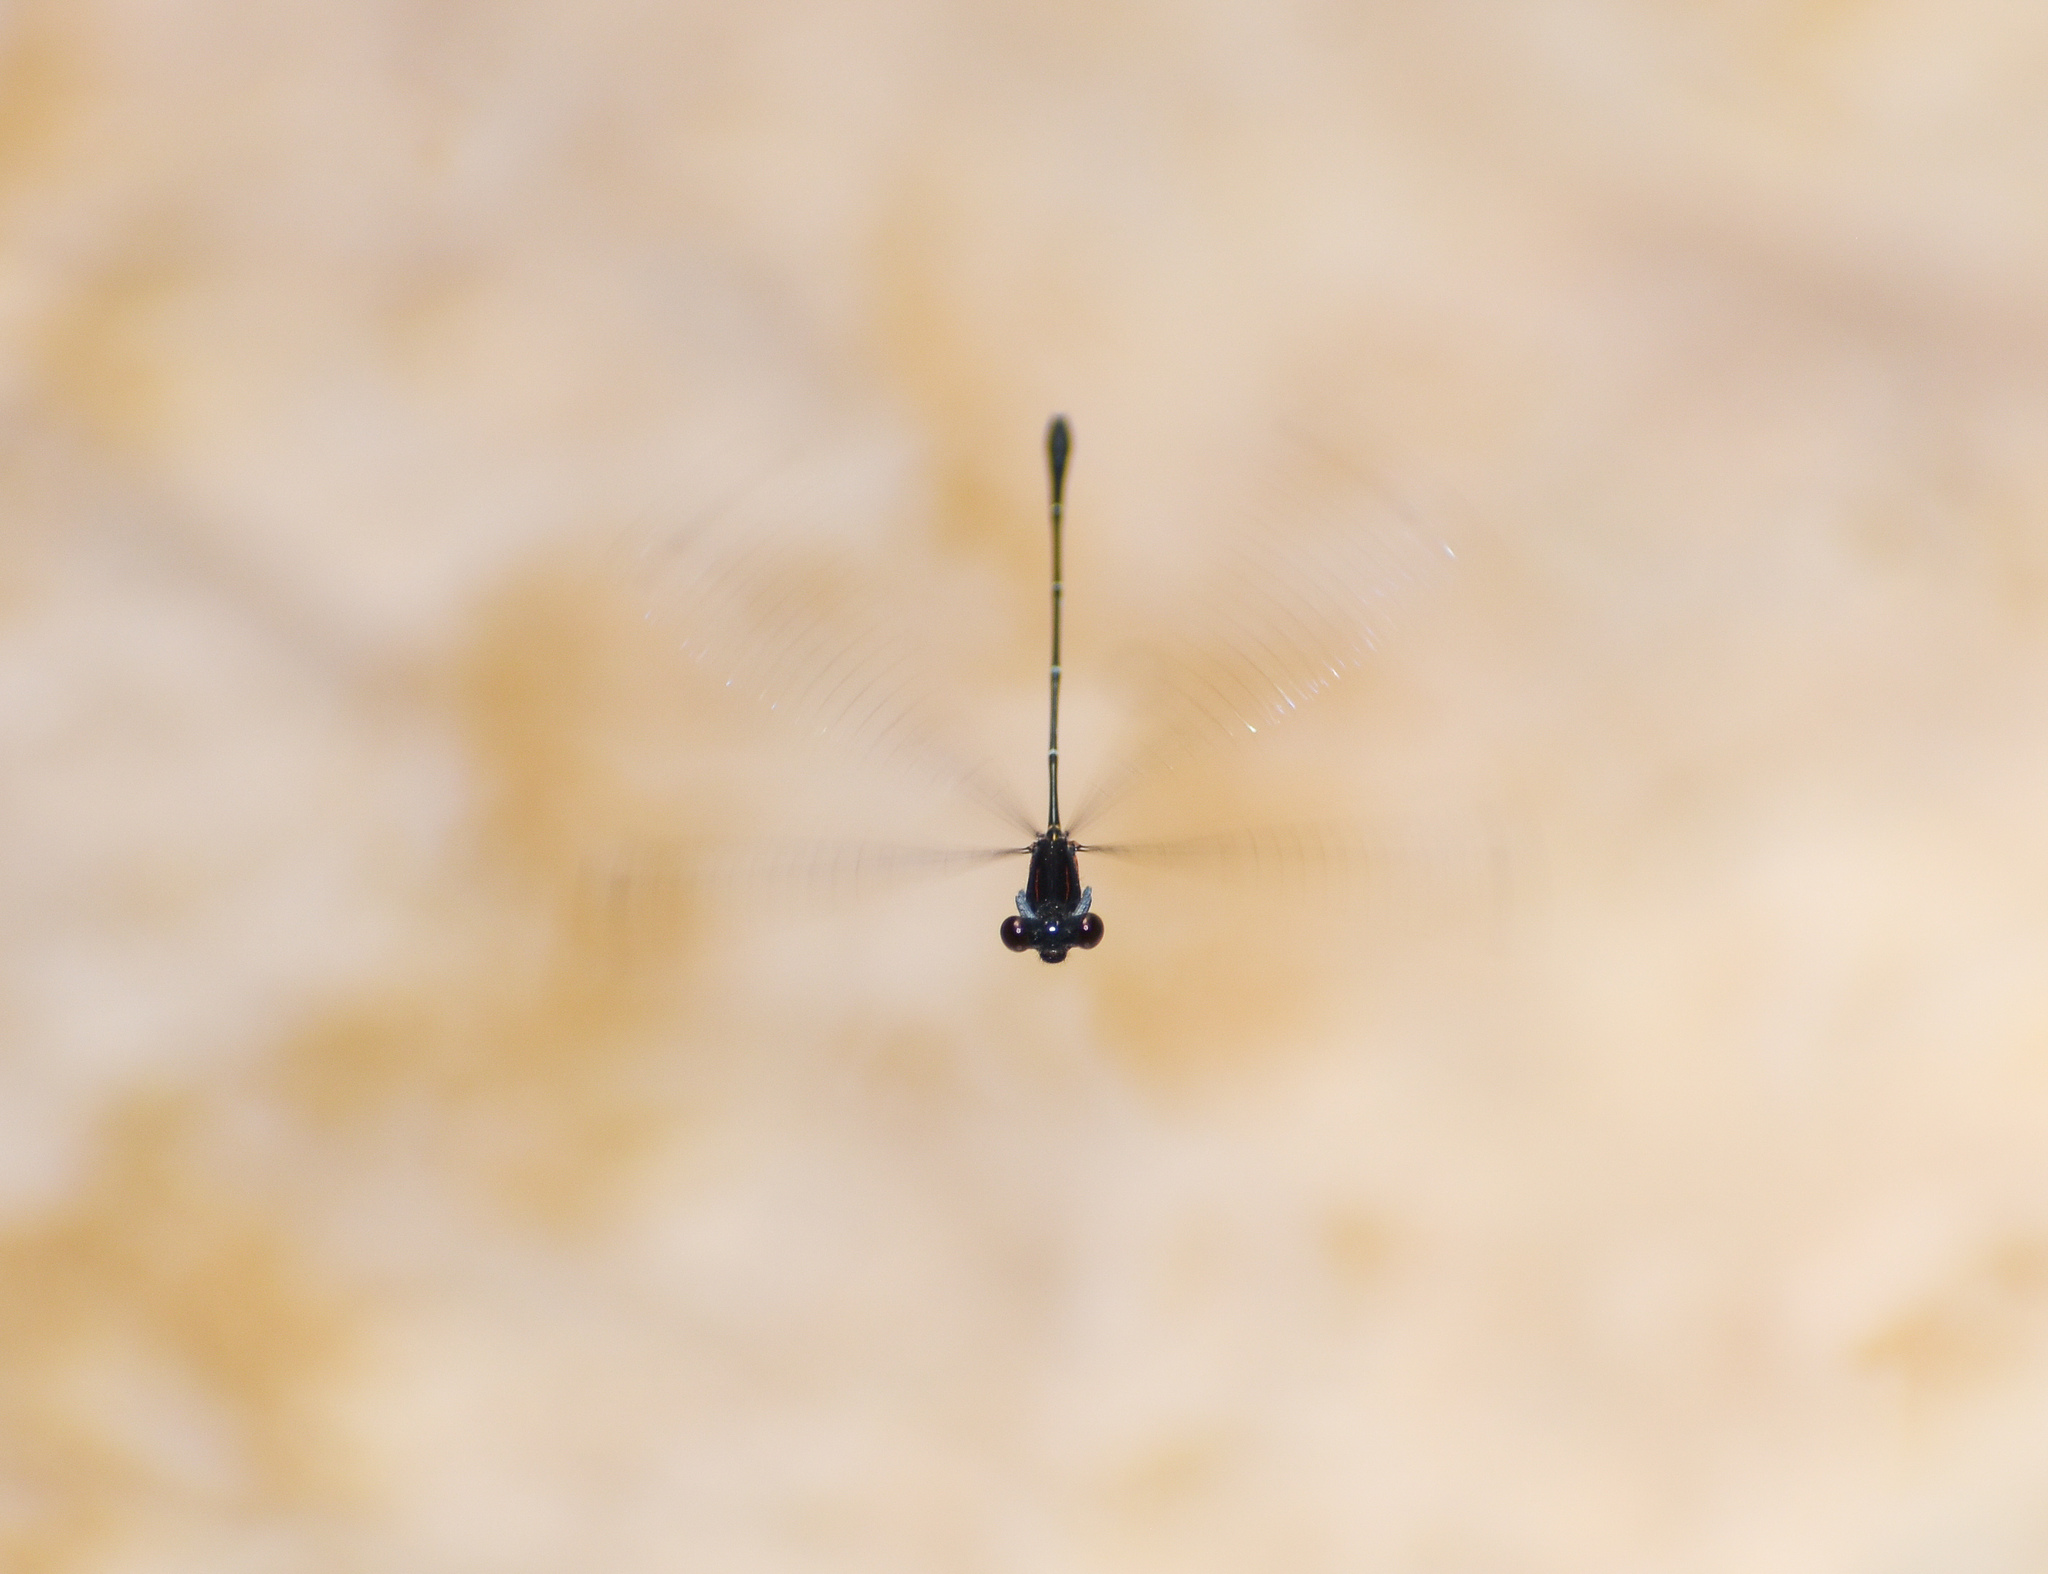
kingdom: Animalia
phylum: Arthropoda
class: Insecta
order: Odonata
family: Platycnemididae
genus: Prodasineura
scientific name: Prodasineura verticalis
